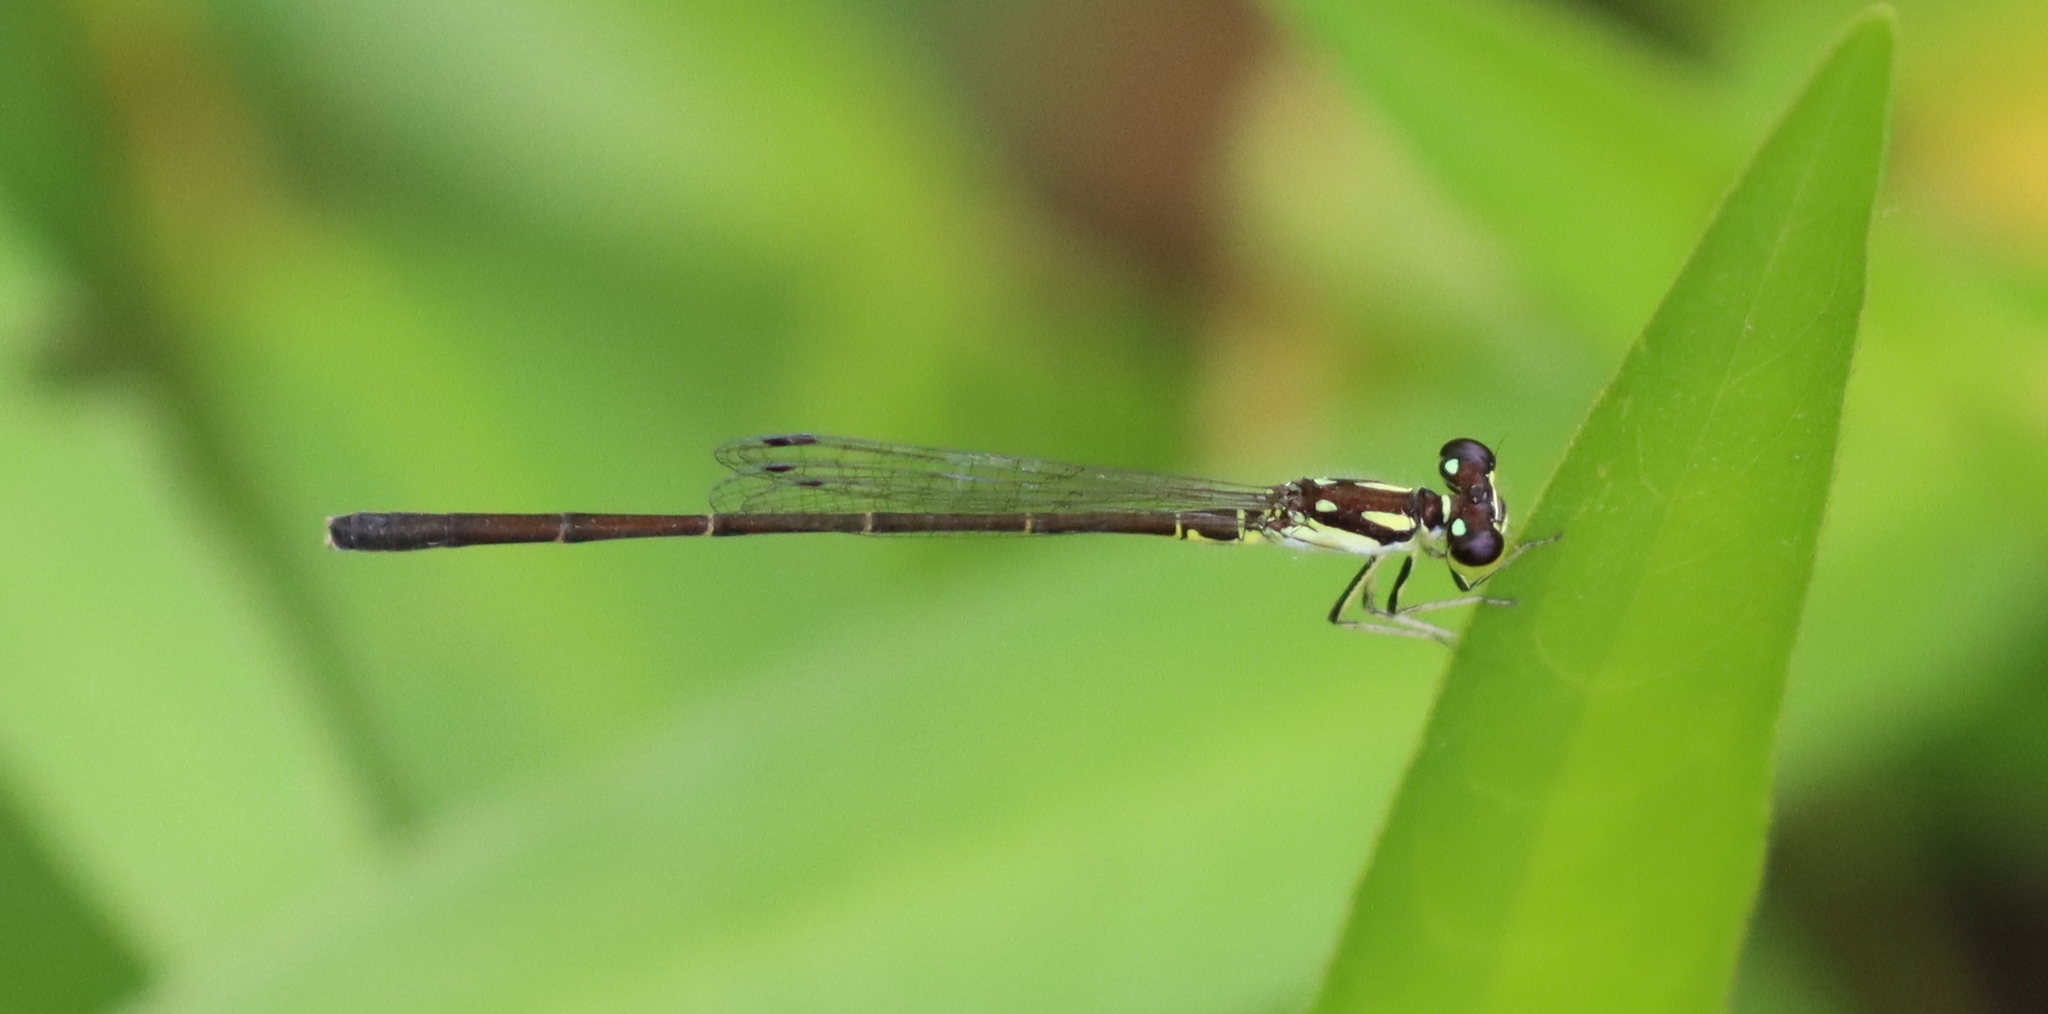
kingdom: Animalia
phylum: Arthropoda
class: Insecta
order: Odonata
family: Coenagrionidae
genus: Ischnura
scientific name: Ischnura posita
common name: Fragile forktail
